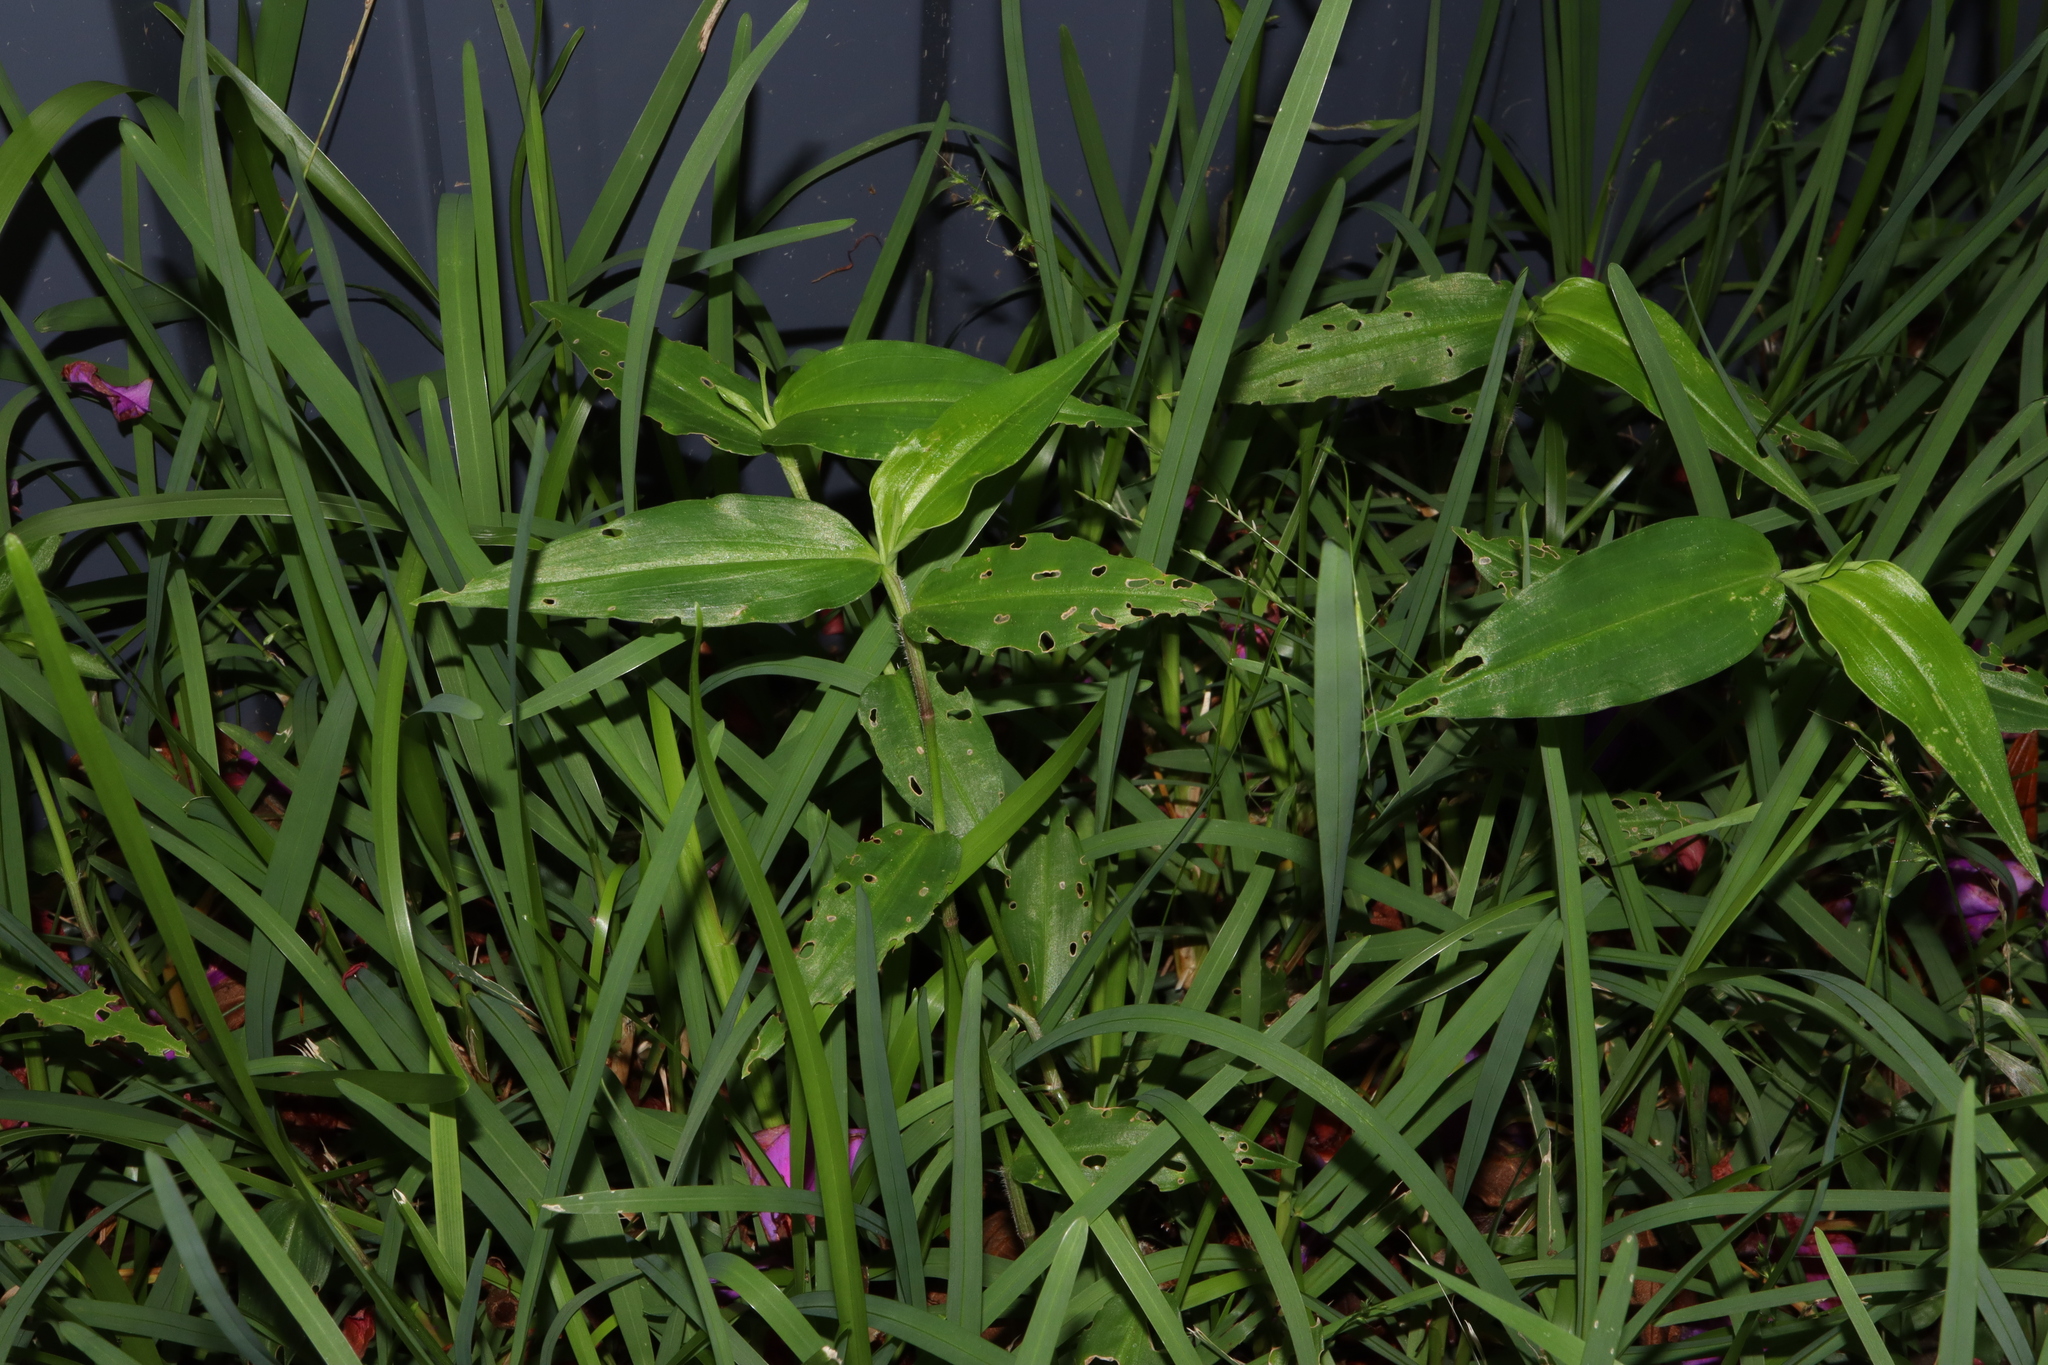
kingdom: Plantae
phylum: Tracheophyta
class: Liliopsida
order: Commelinales
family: Commelinaceae
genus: Commelina
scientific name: Commelina cyanea
